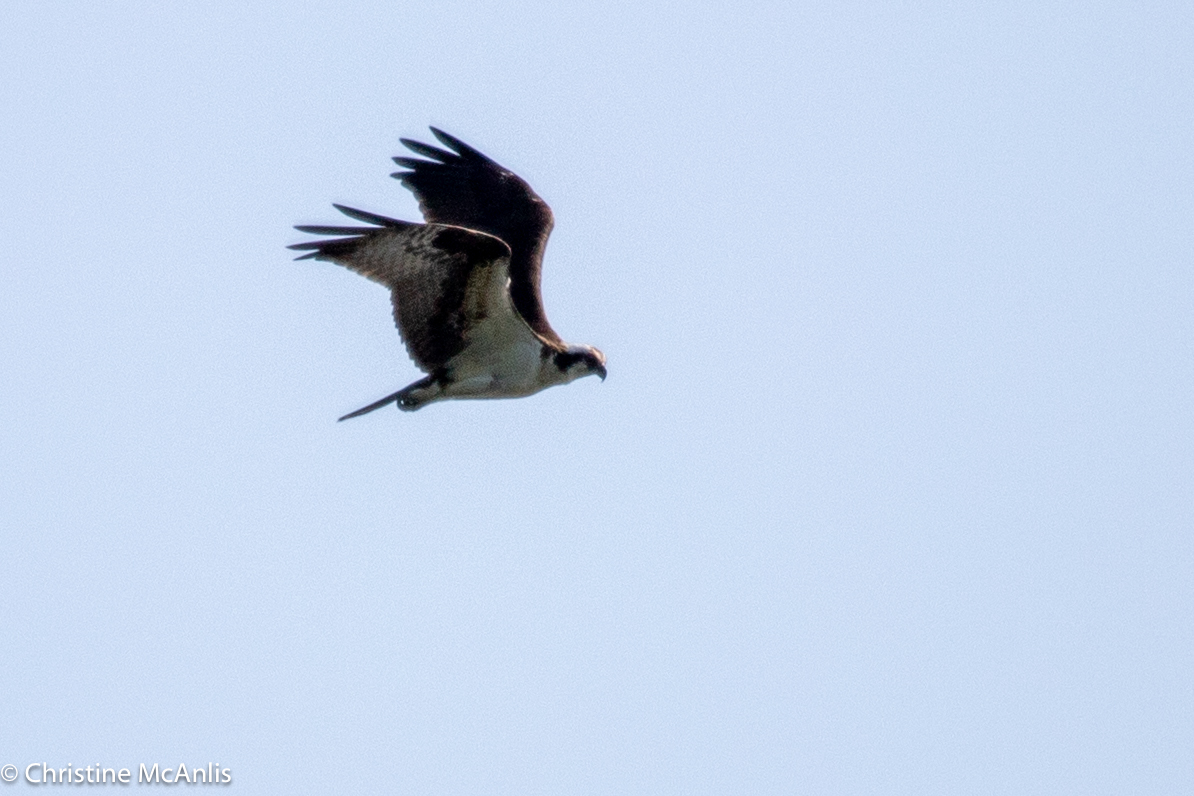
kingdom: Animalia
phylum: Chordata
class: Aves
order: Accipitriformes
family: Pandionidae
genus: Pandion
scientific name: Pandion haliaetus
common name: Osprey
